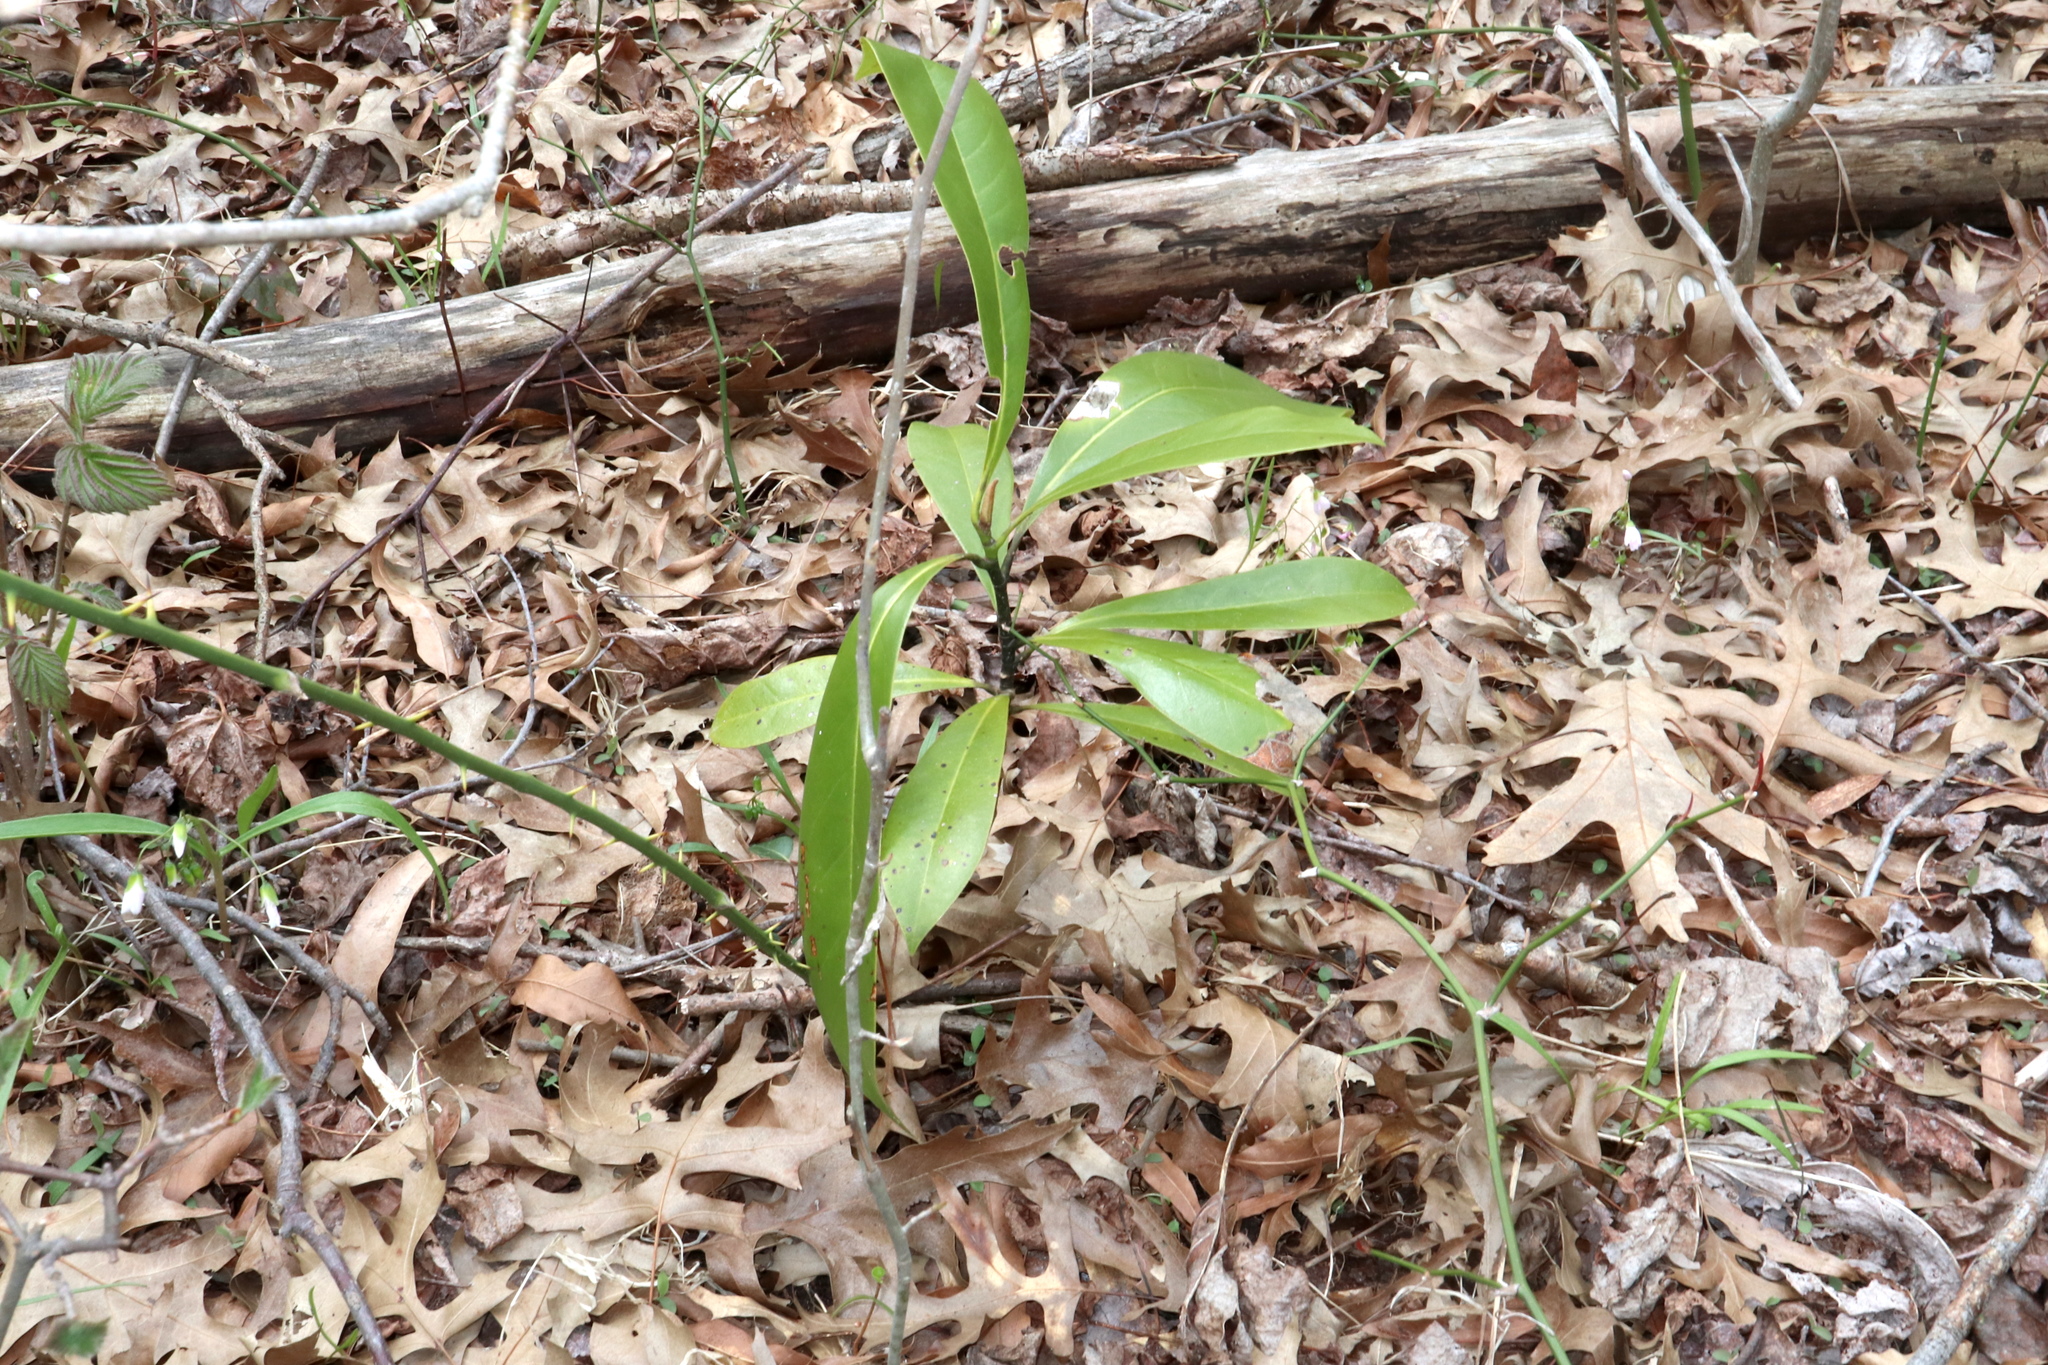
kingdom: Plantae
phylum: Tracheophyta
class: Magnoliopsida
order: Magnoliales
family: Magnoliaceae
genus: Magnolia
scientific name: Magnolia grandiflora
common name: Southern magnolia
